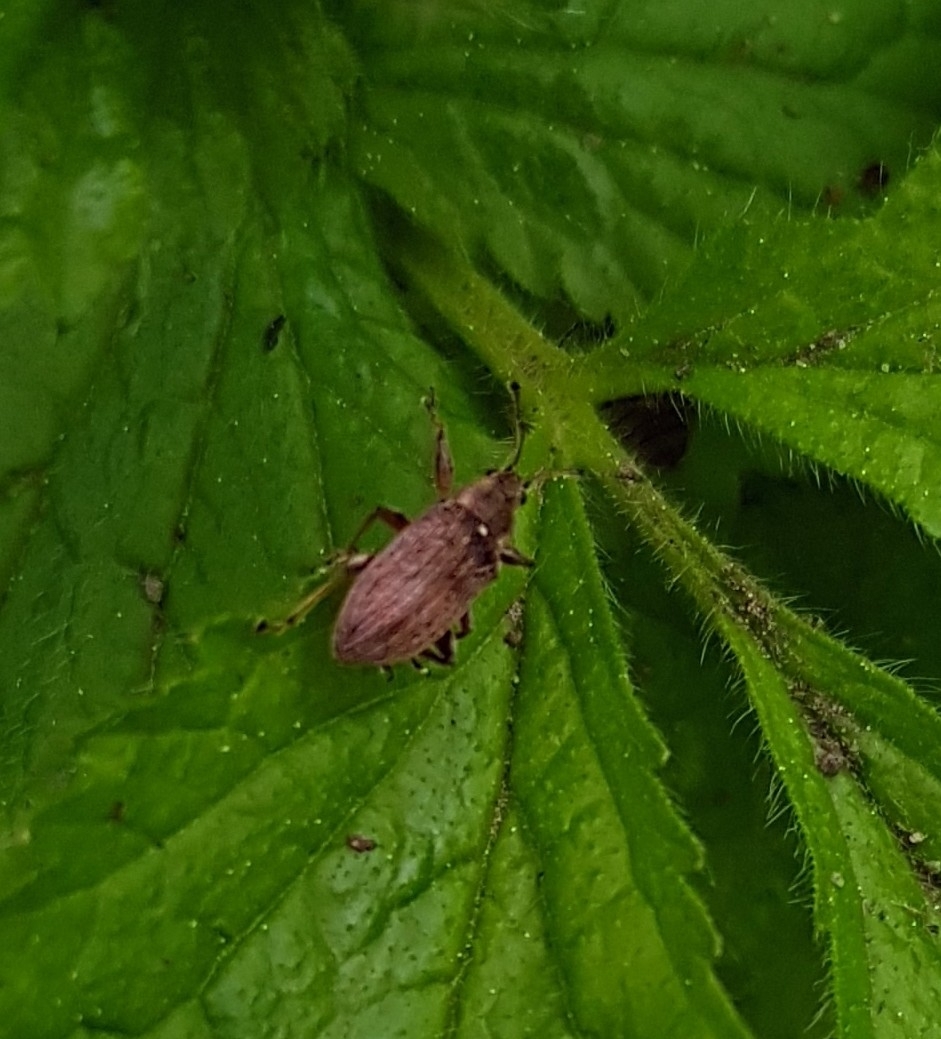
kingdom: Animalia
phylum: Arthropoda
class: Insecta
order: Coleoptera
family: Curculionidae
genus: Phyllobius
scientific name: Phyllobius pyri
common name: Common leaf weevil
